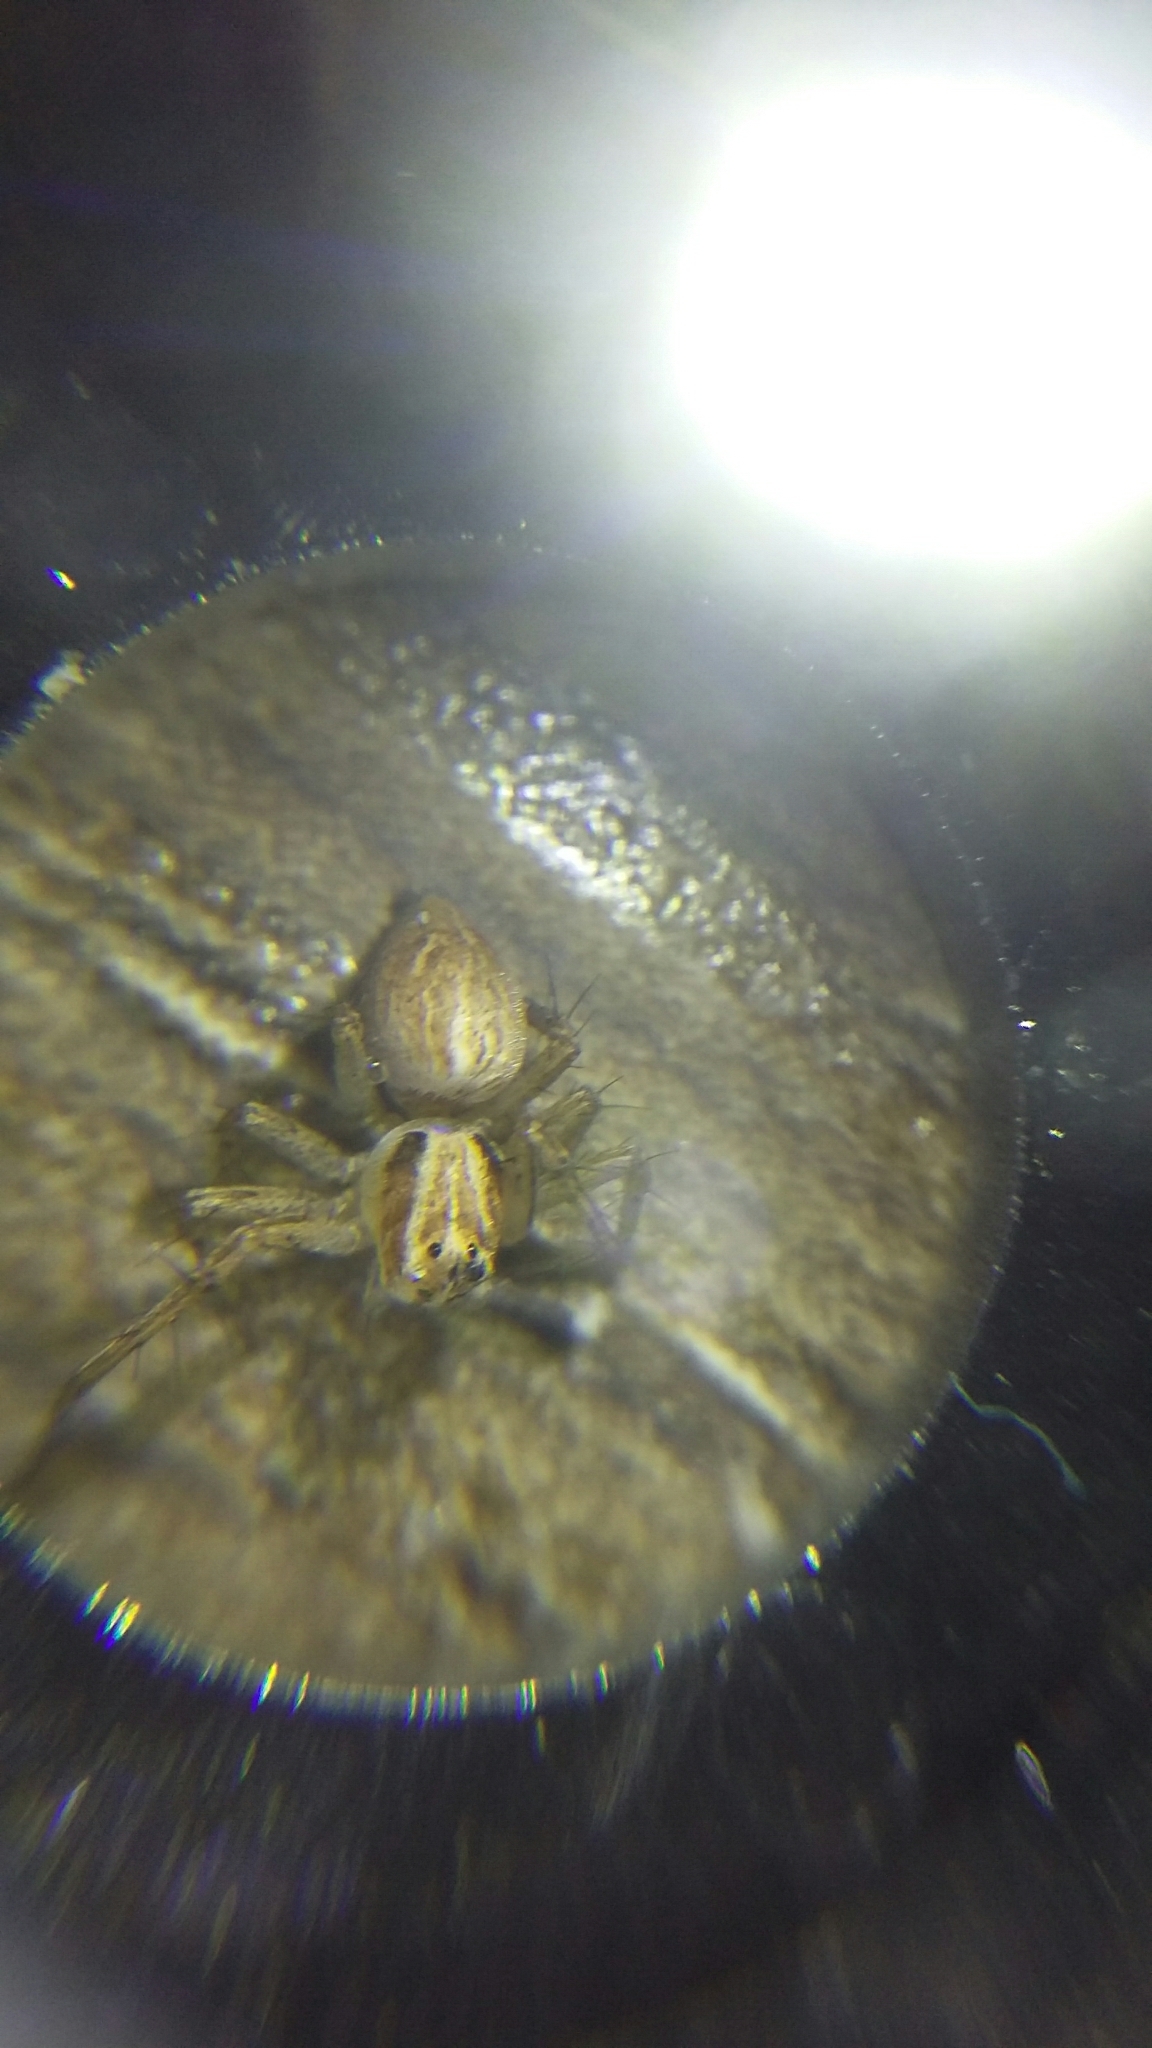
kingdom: Animalia
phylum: Arthropoda
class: Arachnida
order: Araneae
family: Oxyopidae
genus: Oxyopes
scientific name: Oxyopes gracilipes
